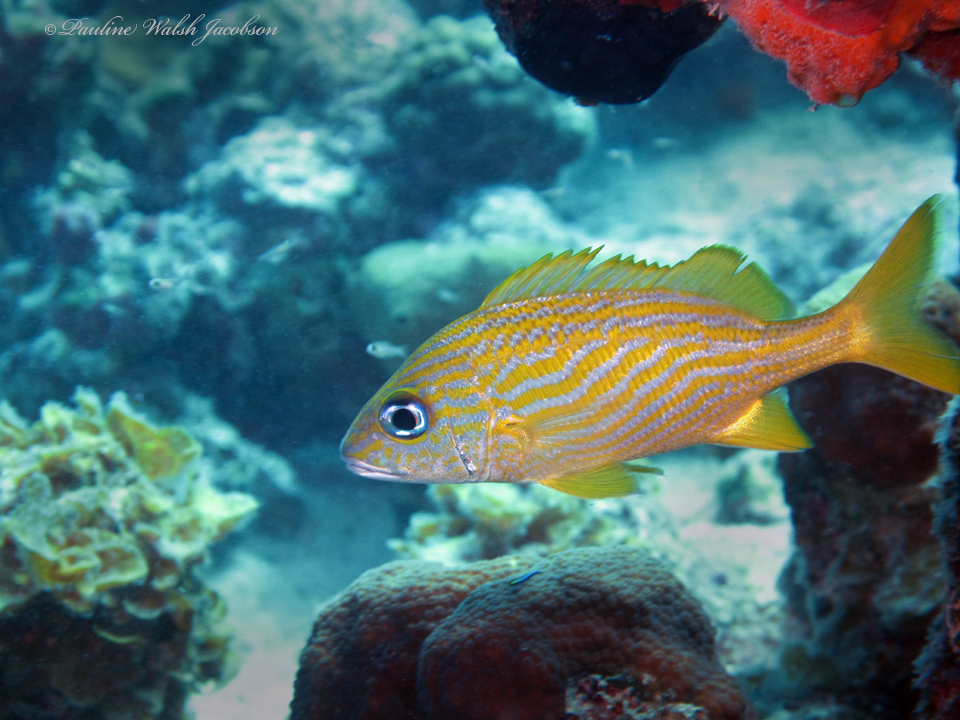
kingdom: Animalia
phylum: Chordata
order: Perciformes
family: Haemulidae
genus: Haemulon
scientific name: Haemulon flavolineatum
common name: French grunt
